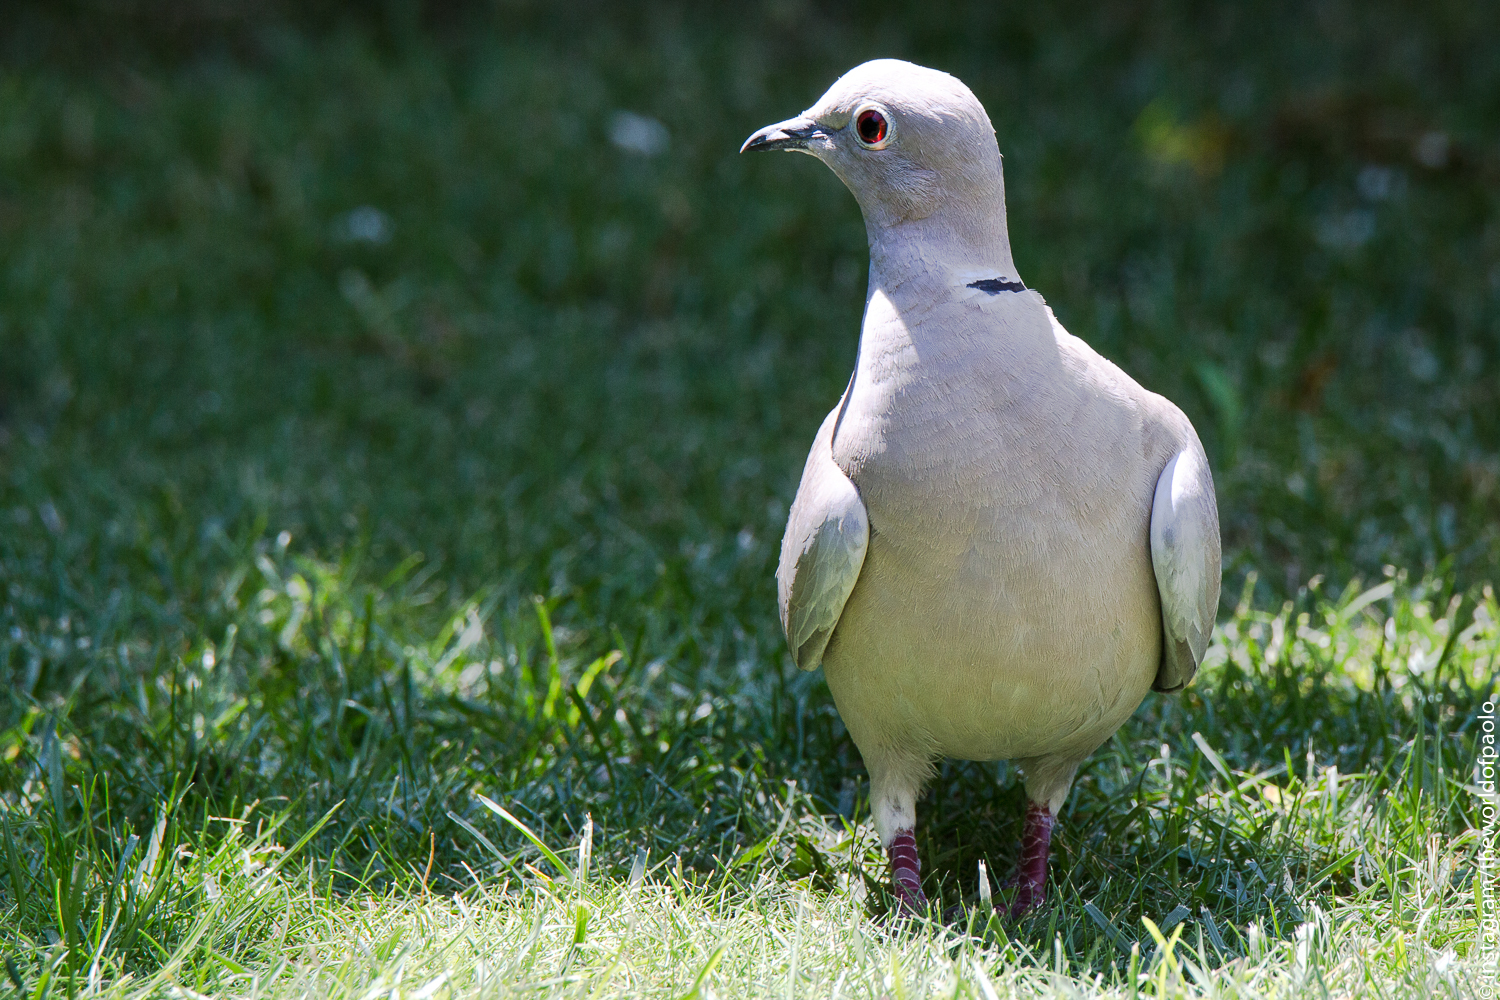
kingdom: Animalia
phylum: Chordata
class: Aves
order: Columbiformes
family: Columbidae
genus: Streptopelia
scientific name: Streptopelia decaocto
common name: Eurasian collared dove
